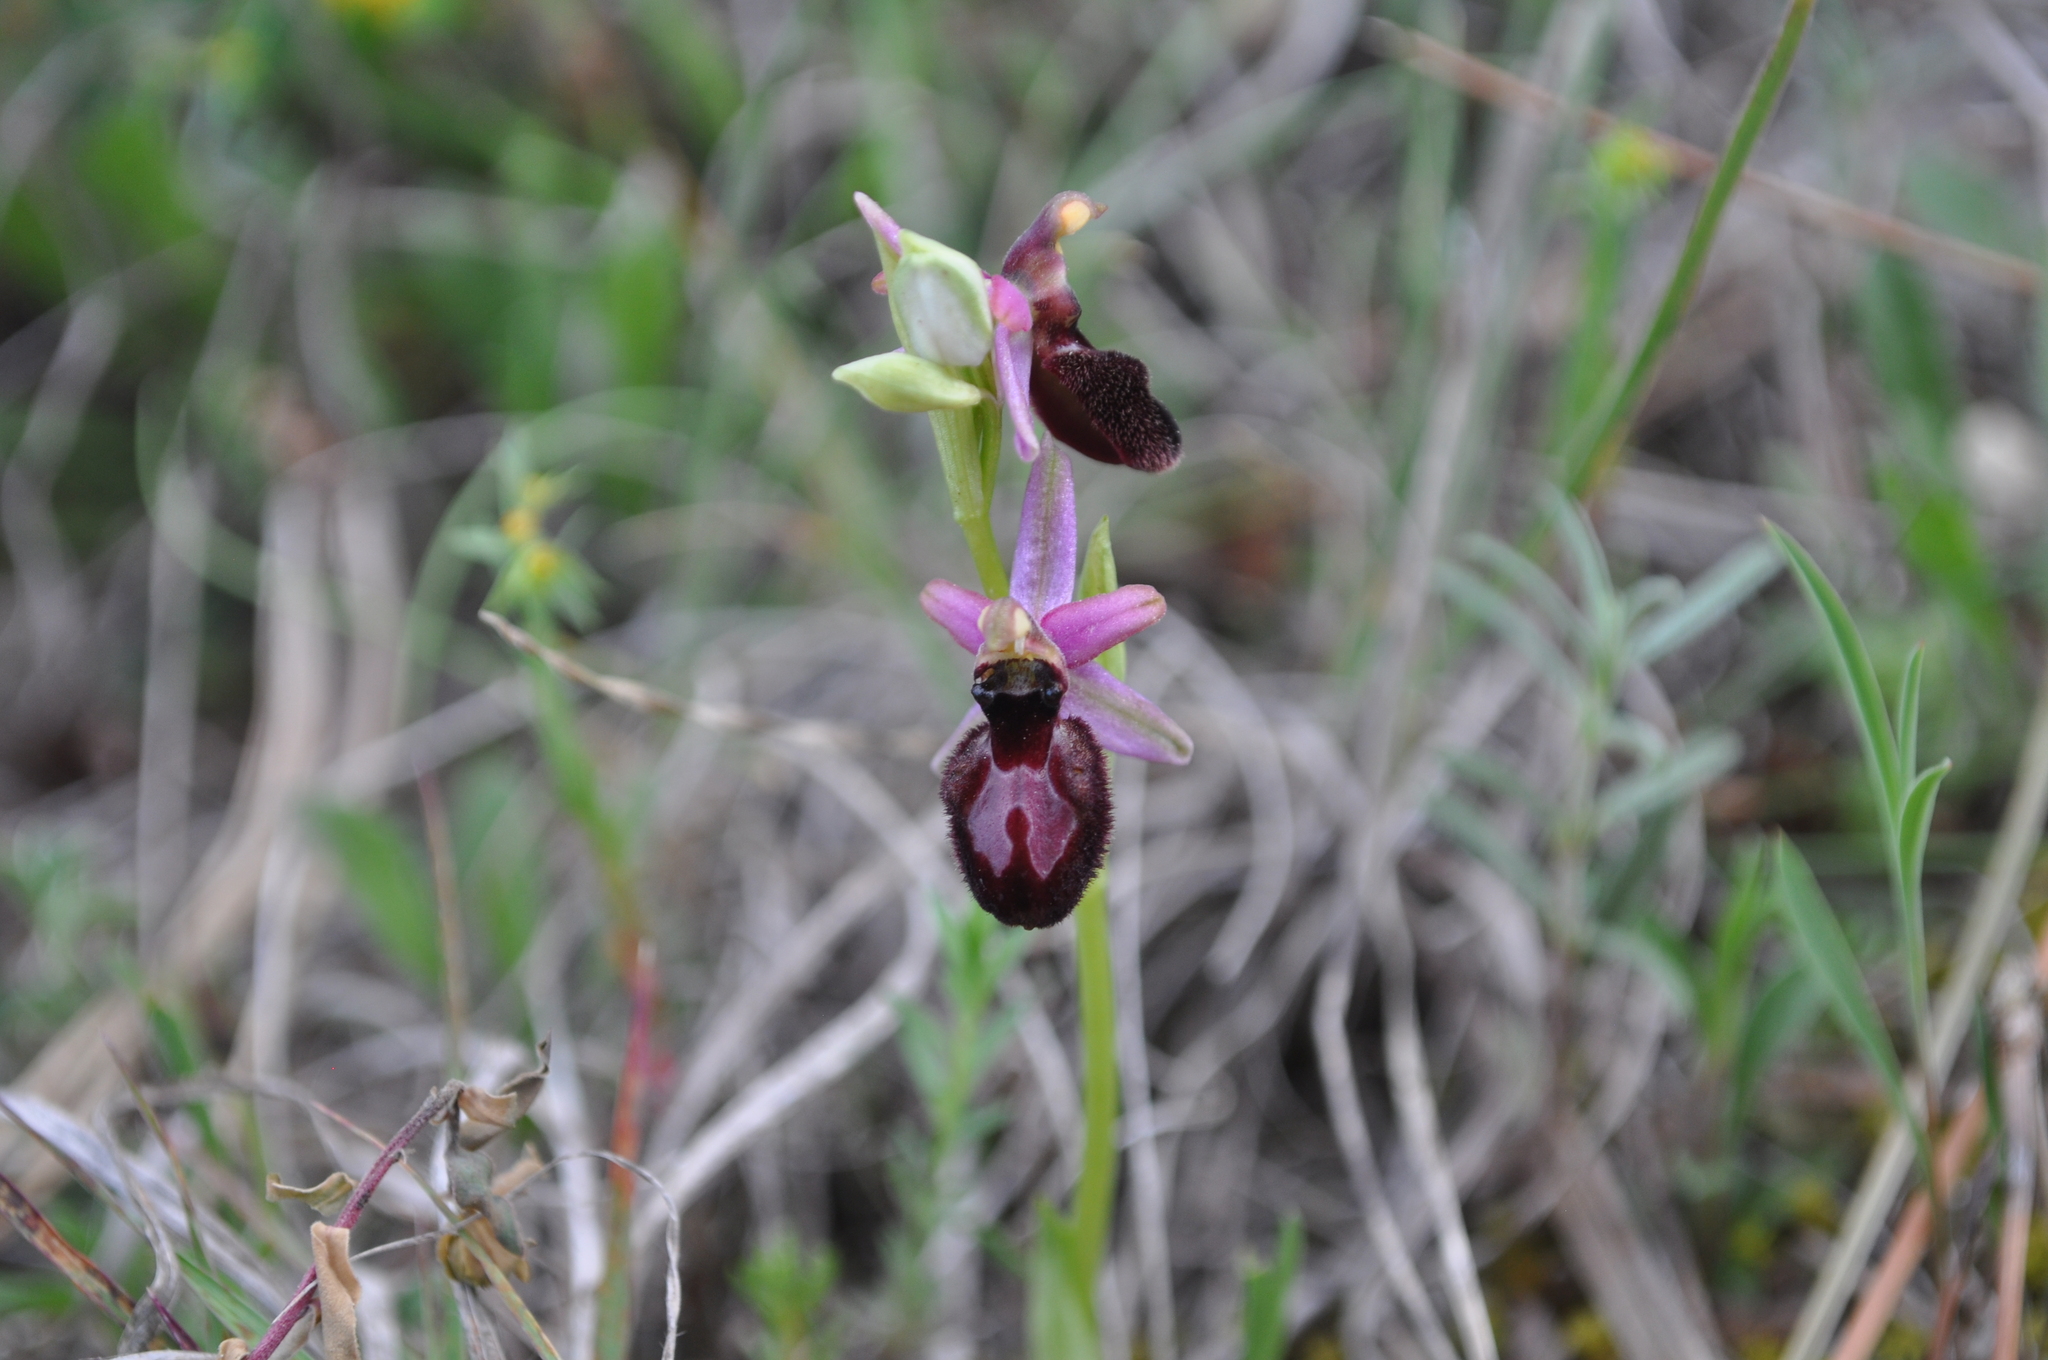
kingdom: Plantae
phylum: Tracheophyta
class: Liliopsida
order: Asparagales
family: Orchidaceae
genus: Ophrys
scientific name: Ophrys flavicans
